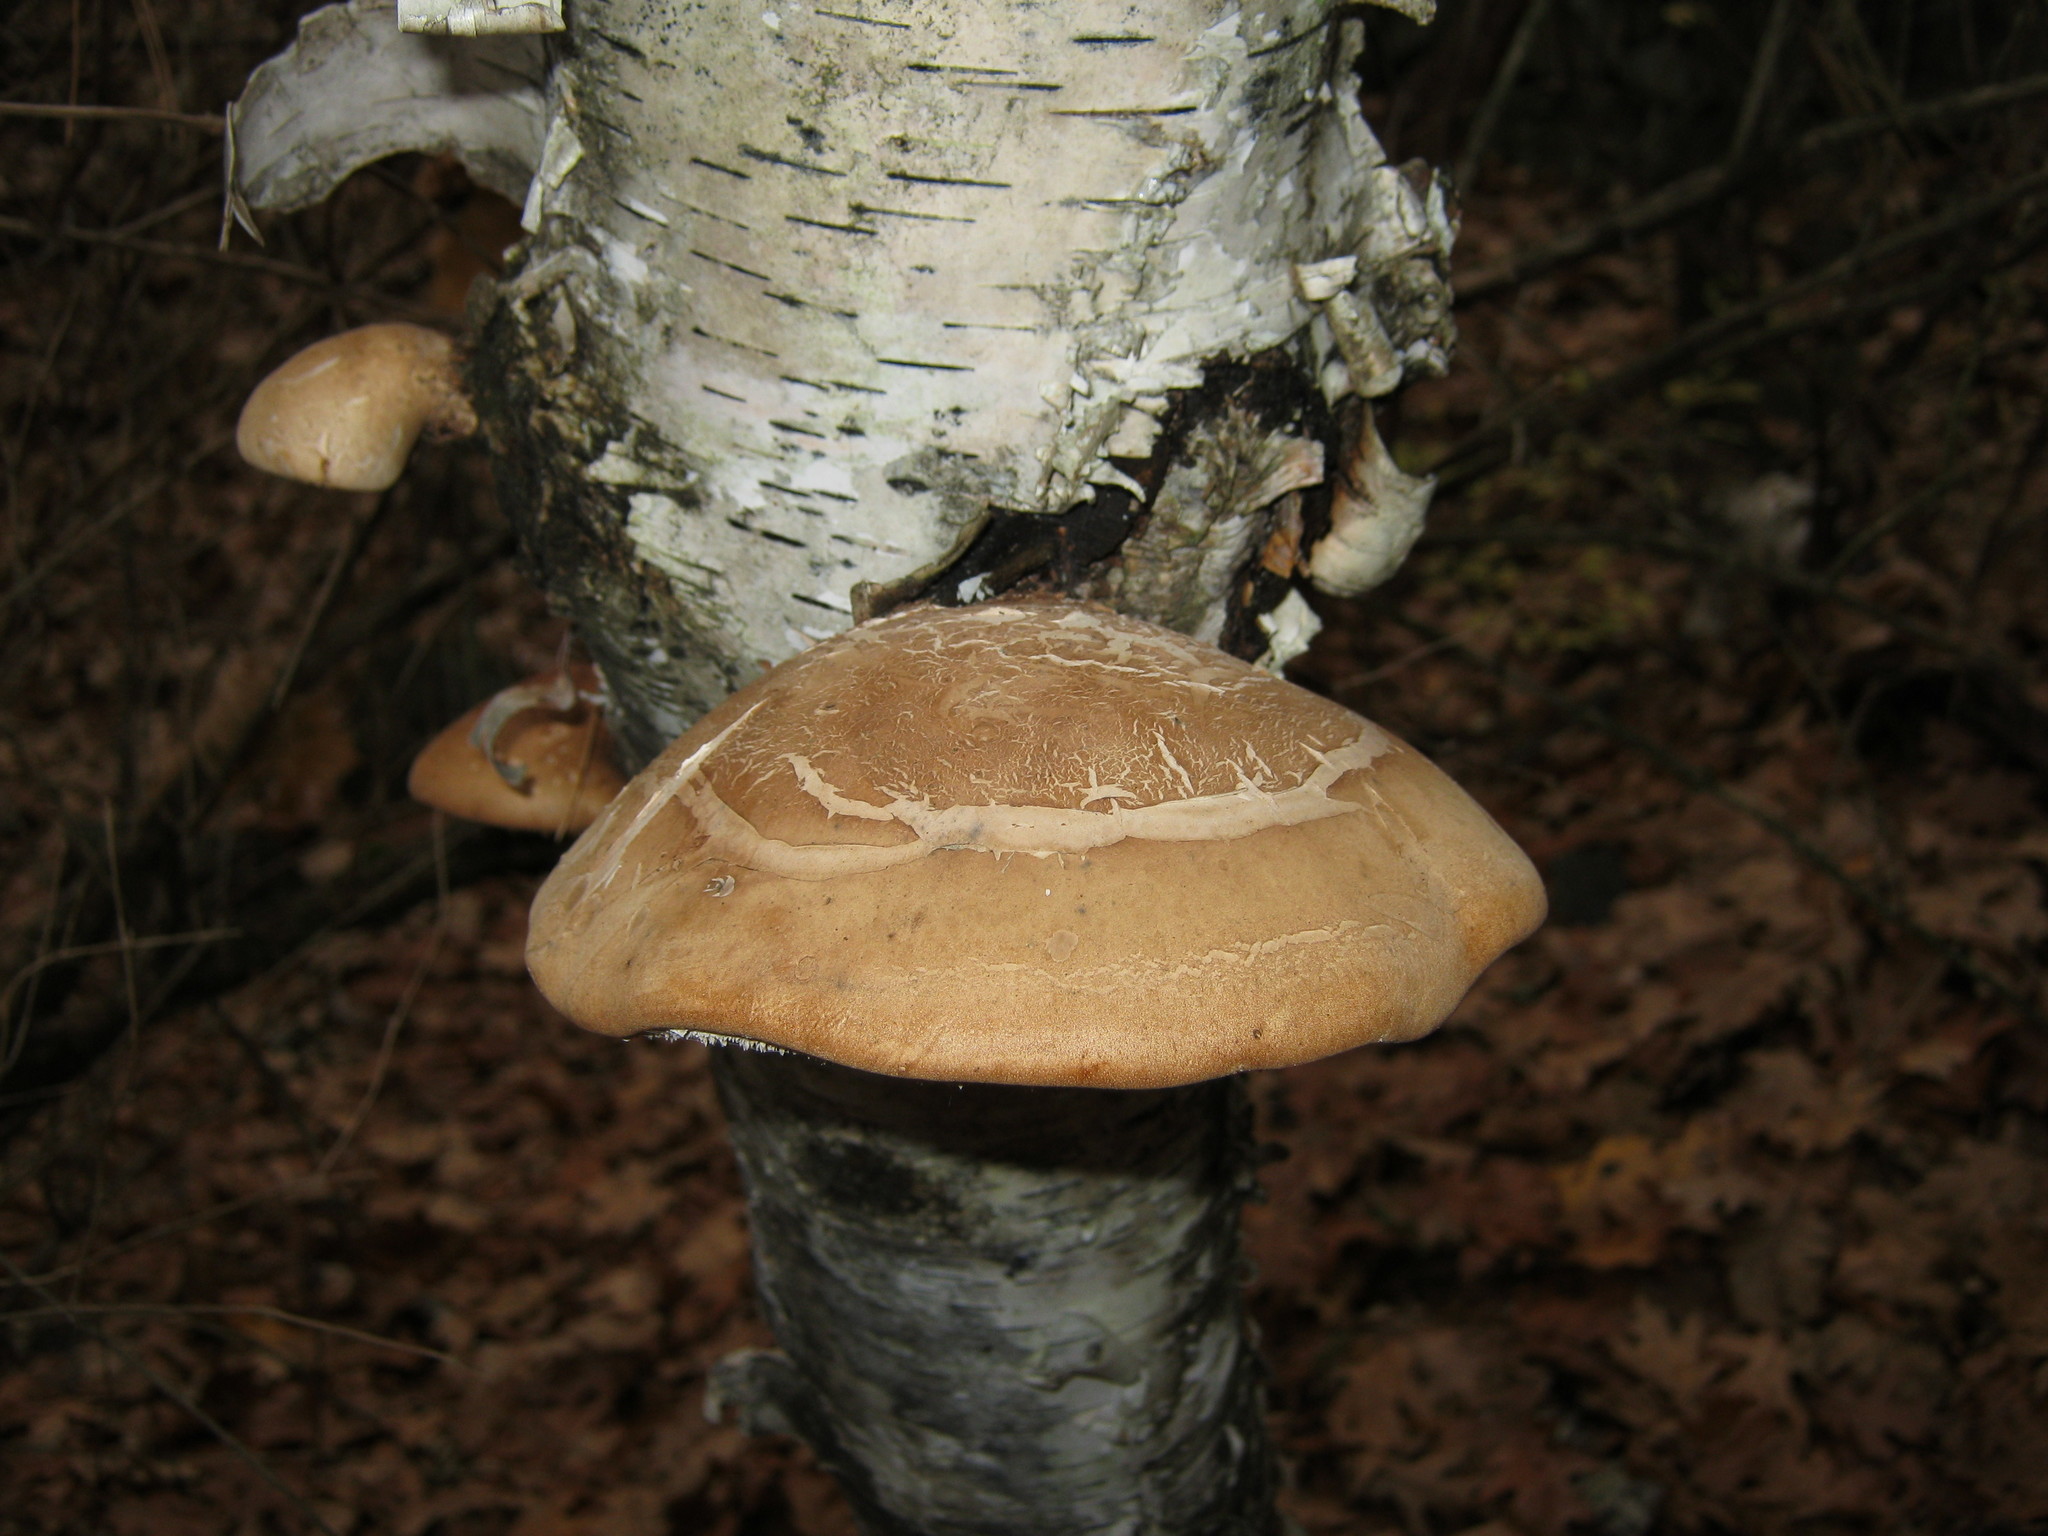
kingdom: Fungi
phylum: Basidiomycota
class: Agaricomycetes
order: Polyporales
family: Fomitopsidaceae
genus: Fomitopsis
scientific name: Fomitopsis betulina
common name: Birch polypore
